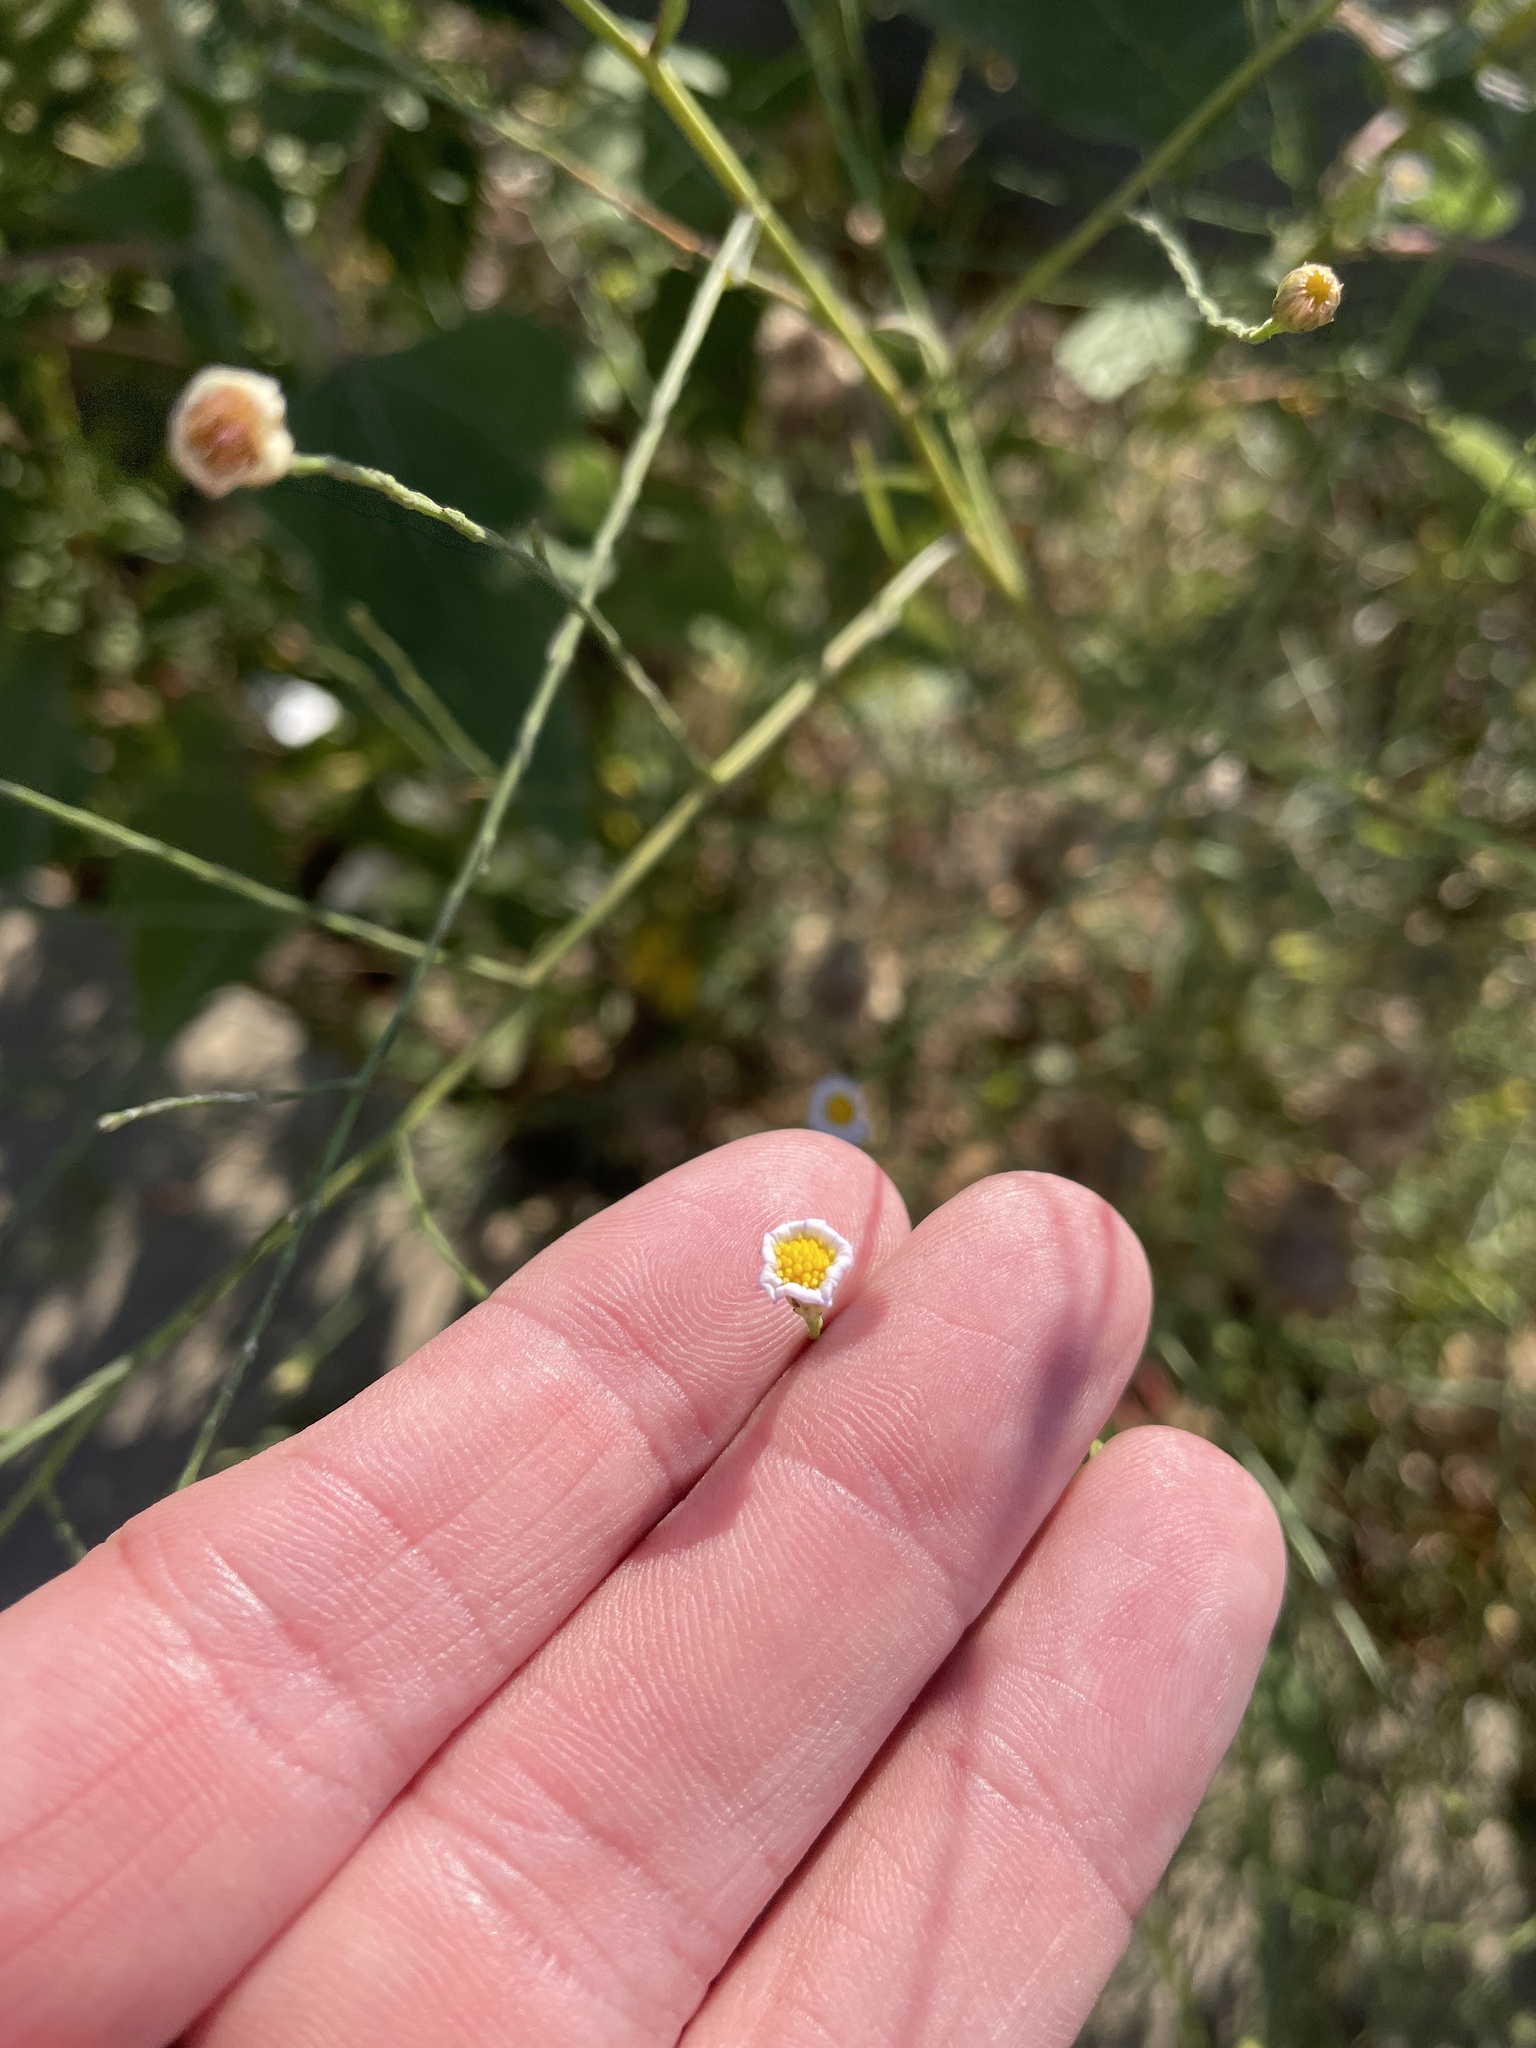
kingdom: Plantae
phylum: Tracheophyta
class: Magnoliopsida
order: Asterales
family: Asteraceae
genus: Symphyotrichum
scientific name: Symphyotrichum divaricatum
